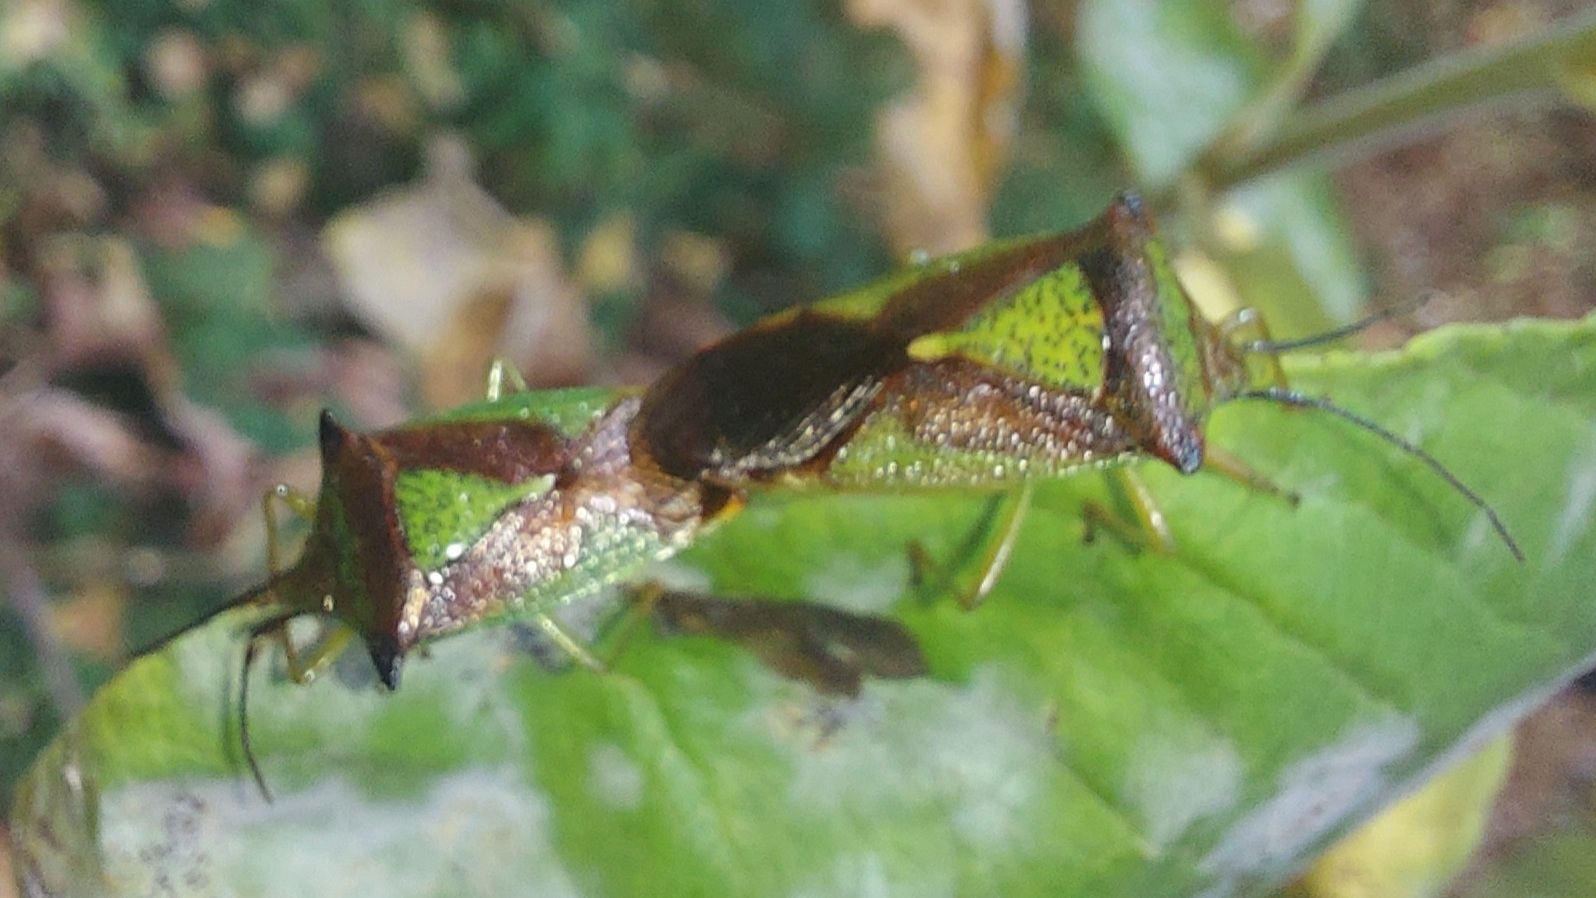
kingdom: Animalia
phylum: Arthropoda
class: Insecta
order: Hemiptera
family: Acanthosomatidae
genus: Acanthosoma
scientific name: Acanthosoma haemorrhoidale
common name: Hawthorn shieldbug
